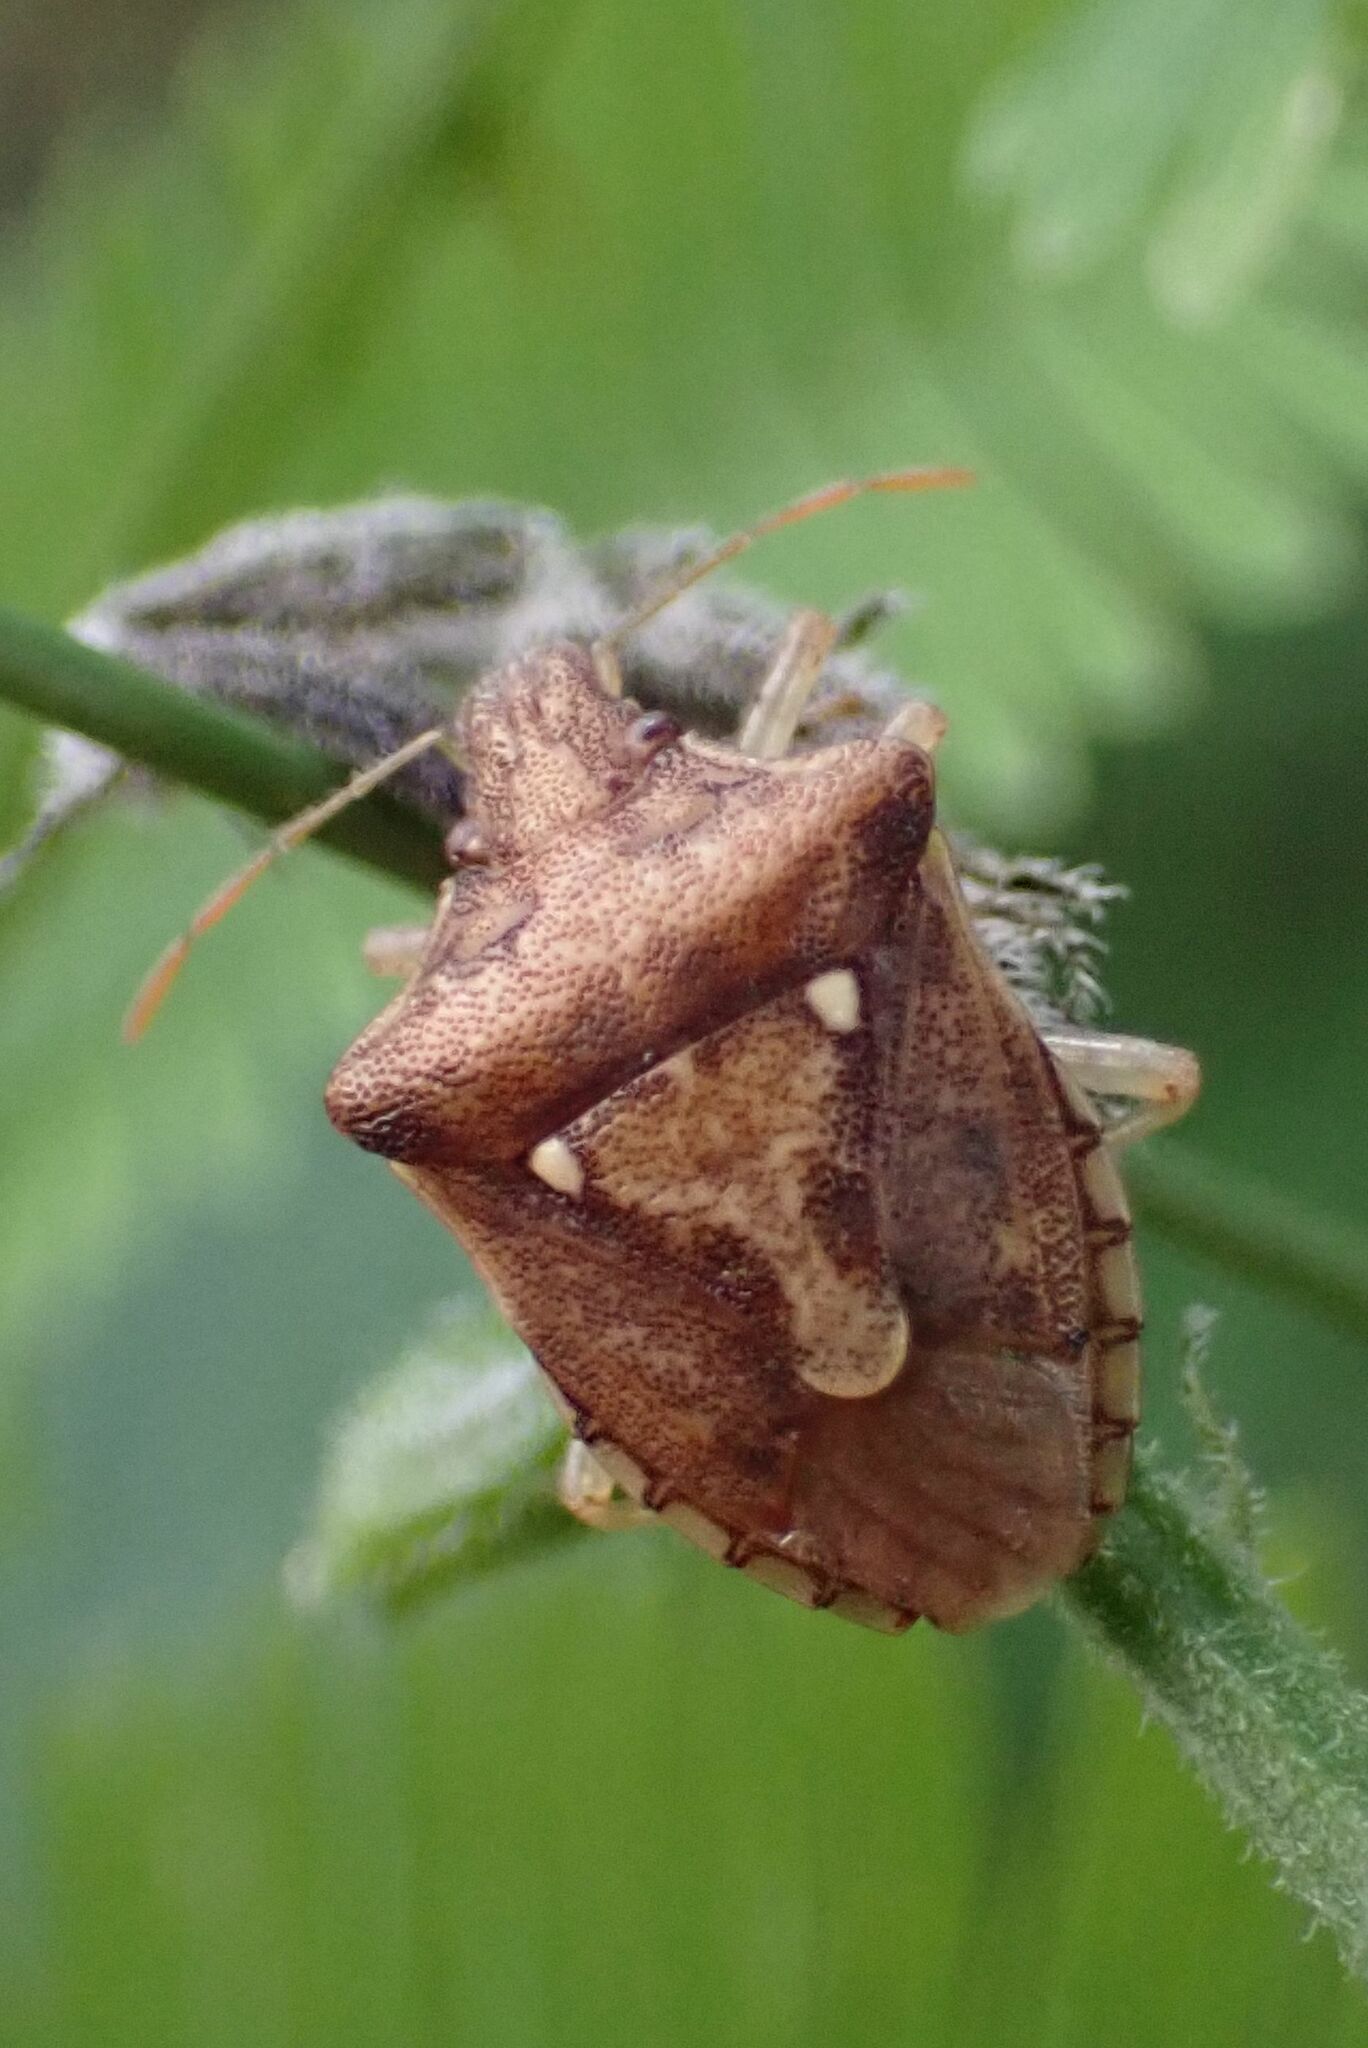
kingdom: Animalia
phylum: Arthropoda
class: Insecta
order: Hemiptera
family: Pentatomidae
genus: Carbula
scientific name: Carbula limpoponis
